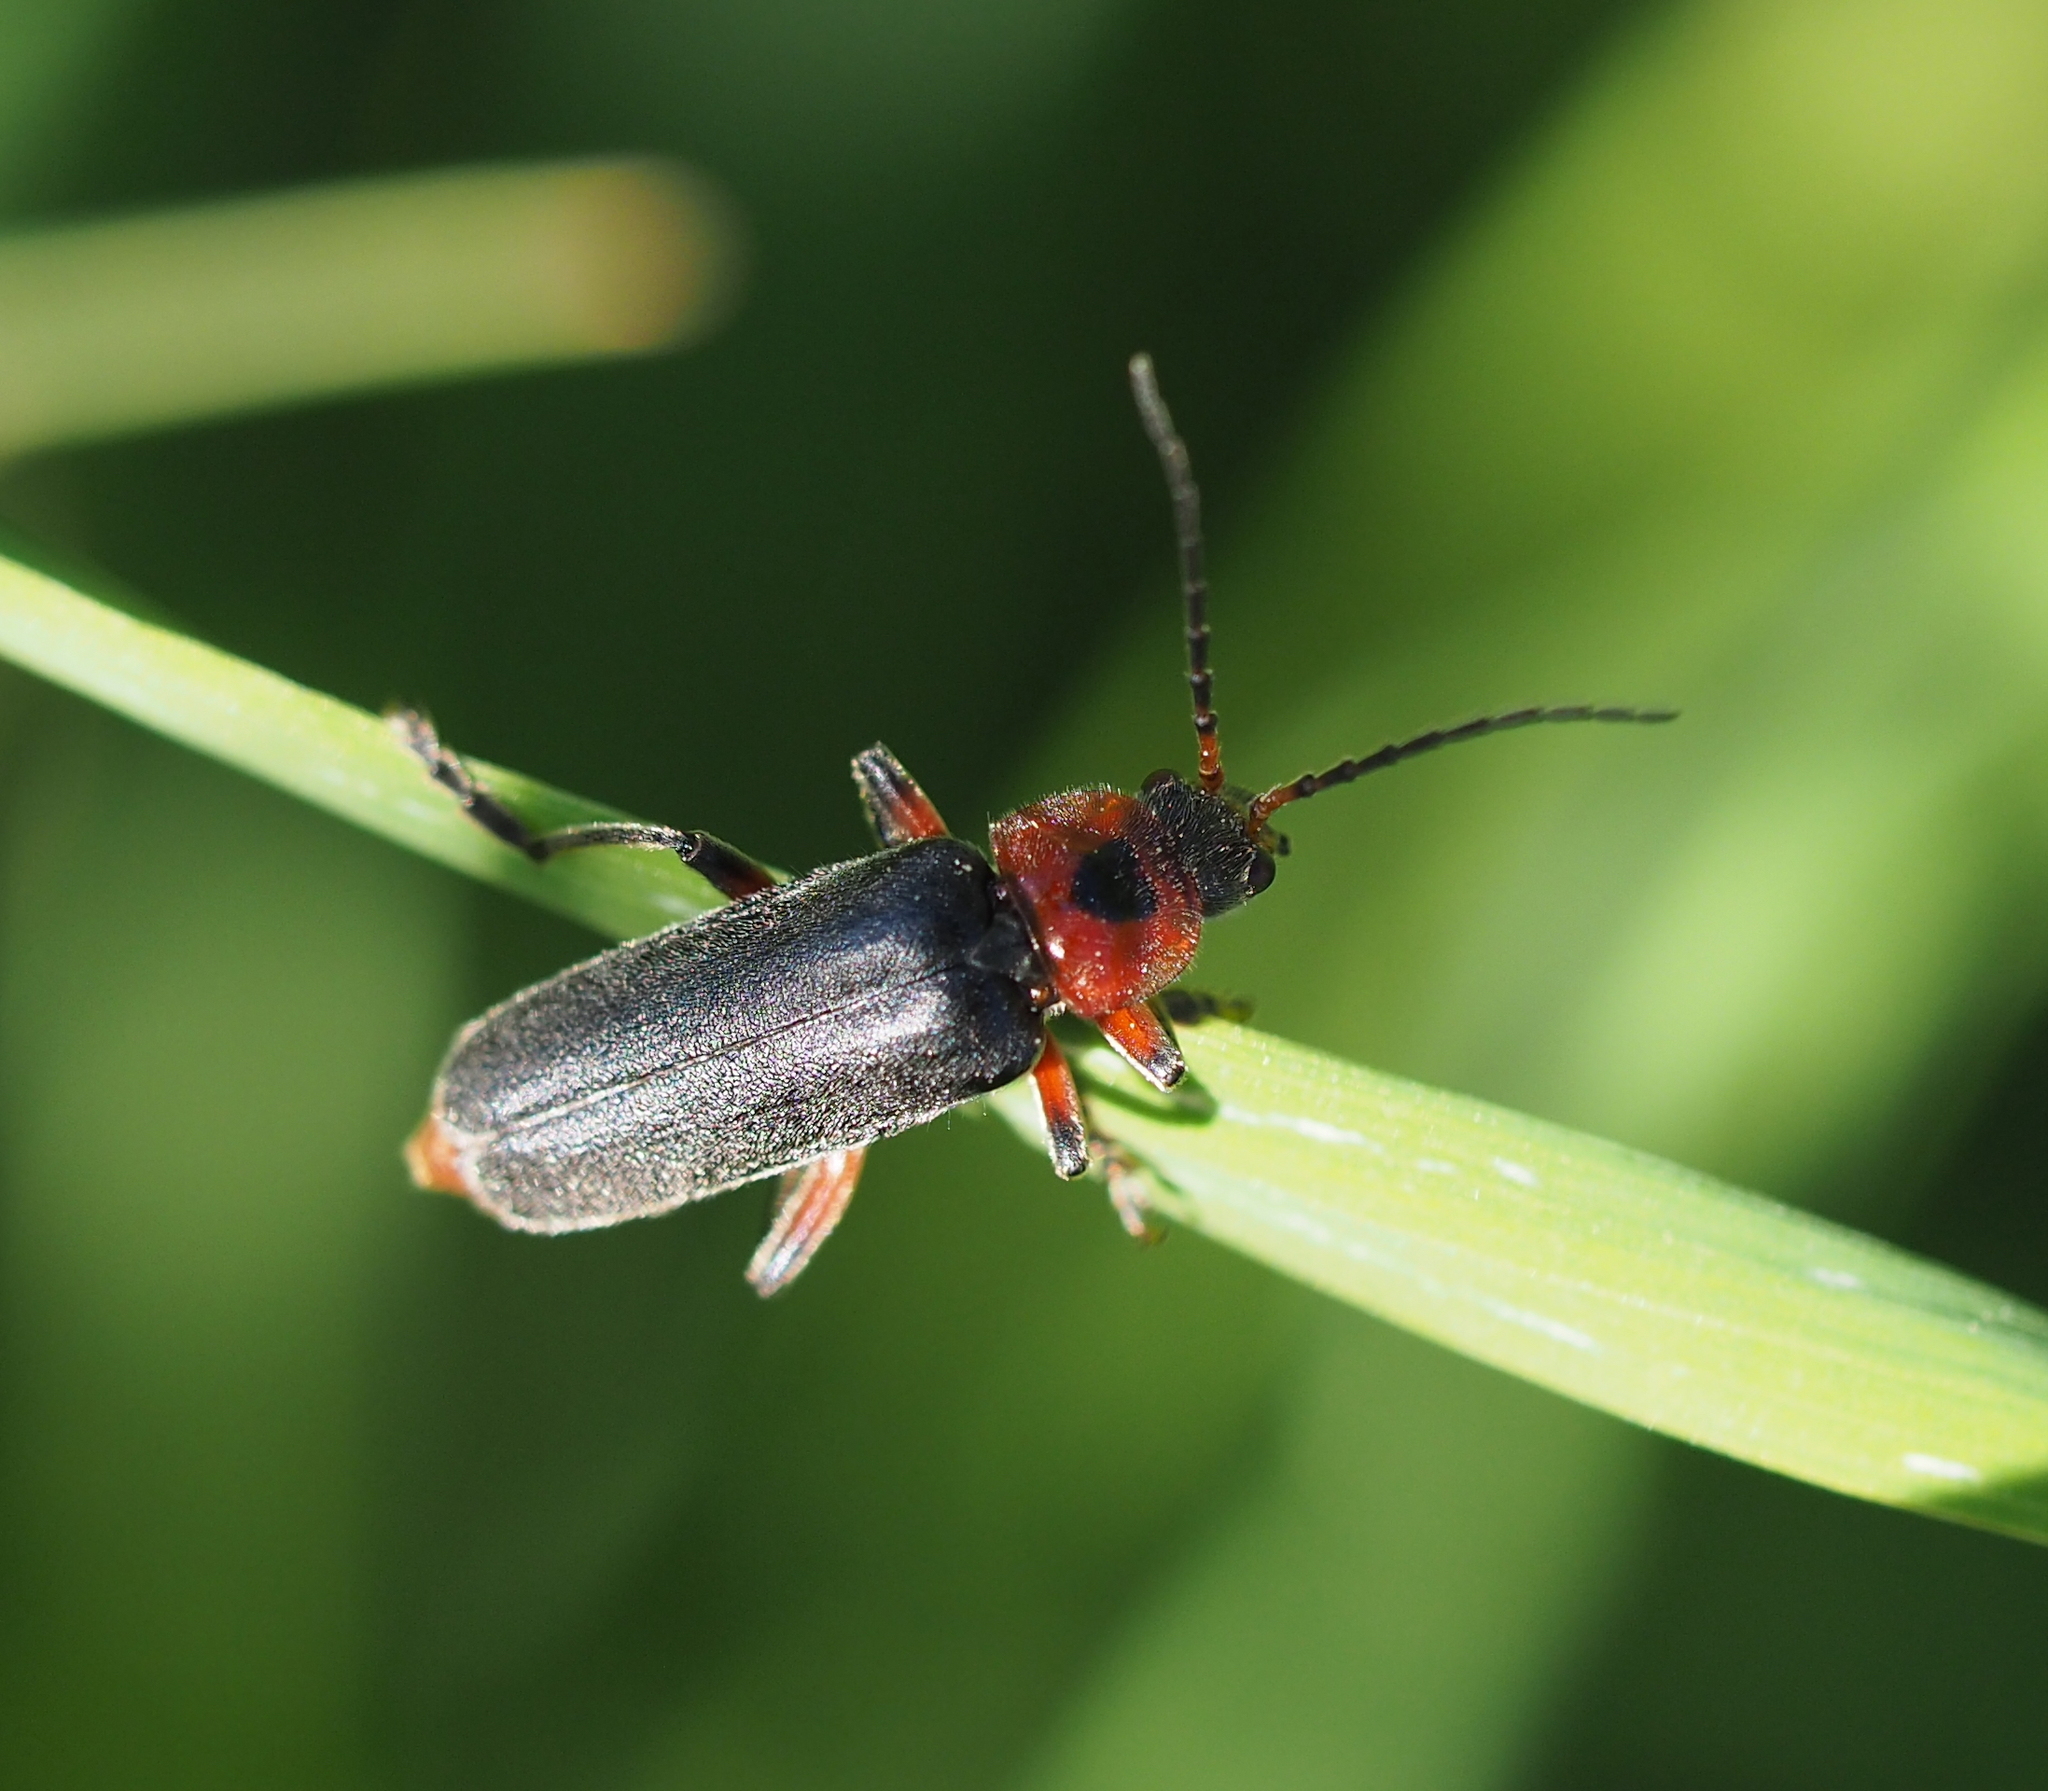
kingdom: Animalia
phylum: Arthropoda
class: Insecta
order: Coleoptera
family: Cantharidae
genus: Cantharis
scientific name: Cantharis rustica
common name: Soldier beetle
